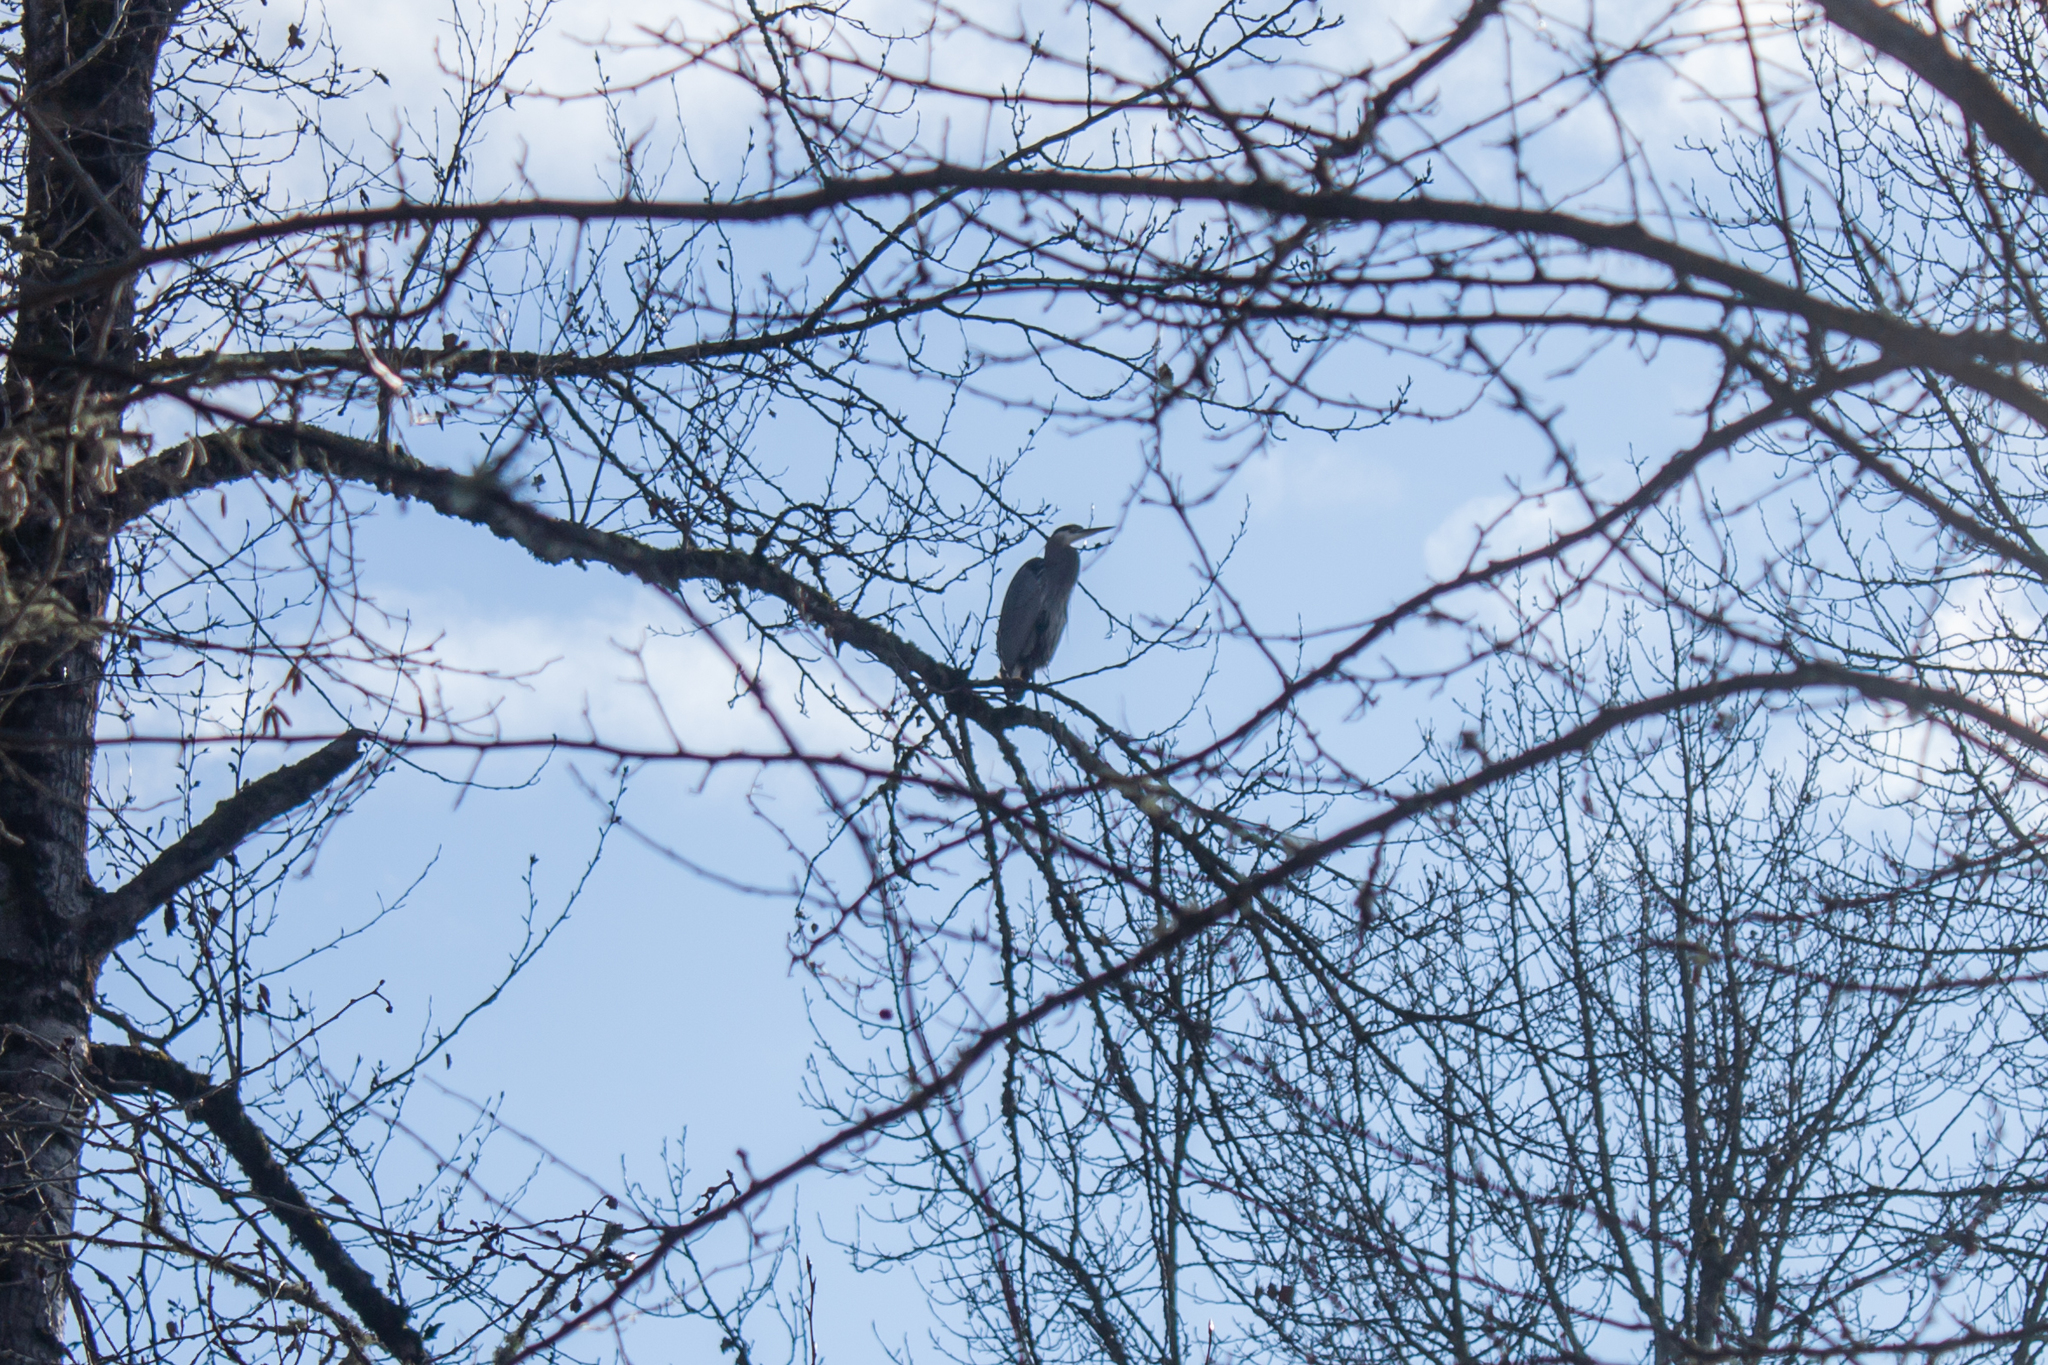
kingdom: Animalia
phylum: Chordata
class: Aves
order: Pelecaniformes
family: Ardeidae
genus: Ardea
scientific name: Ardea herodias
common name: Great blue heron
